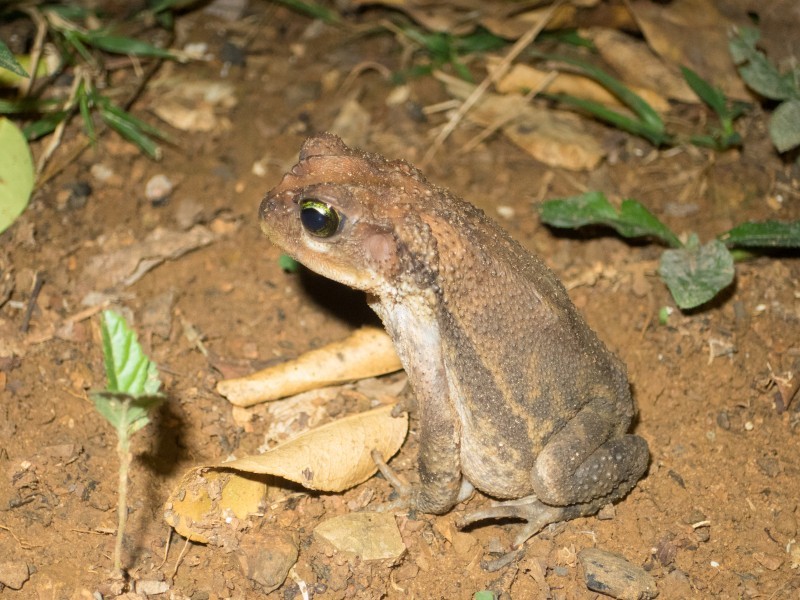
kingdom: Animalia
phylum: Chordata
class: Amphibia
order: Anura
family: Bufonidae
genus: Peltophryne
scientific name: Peltophryne fustiger
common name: Western cuba giant toad
